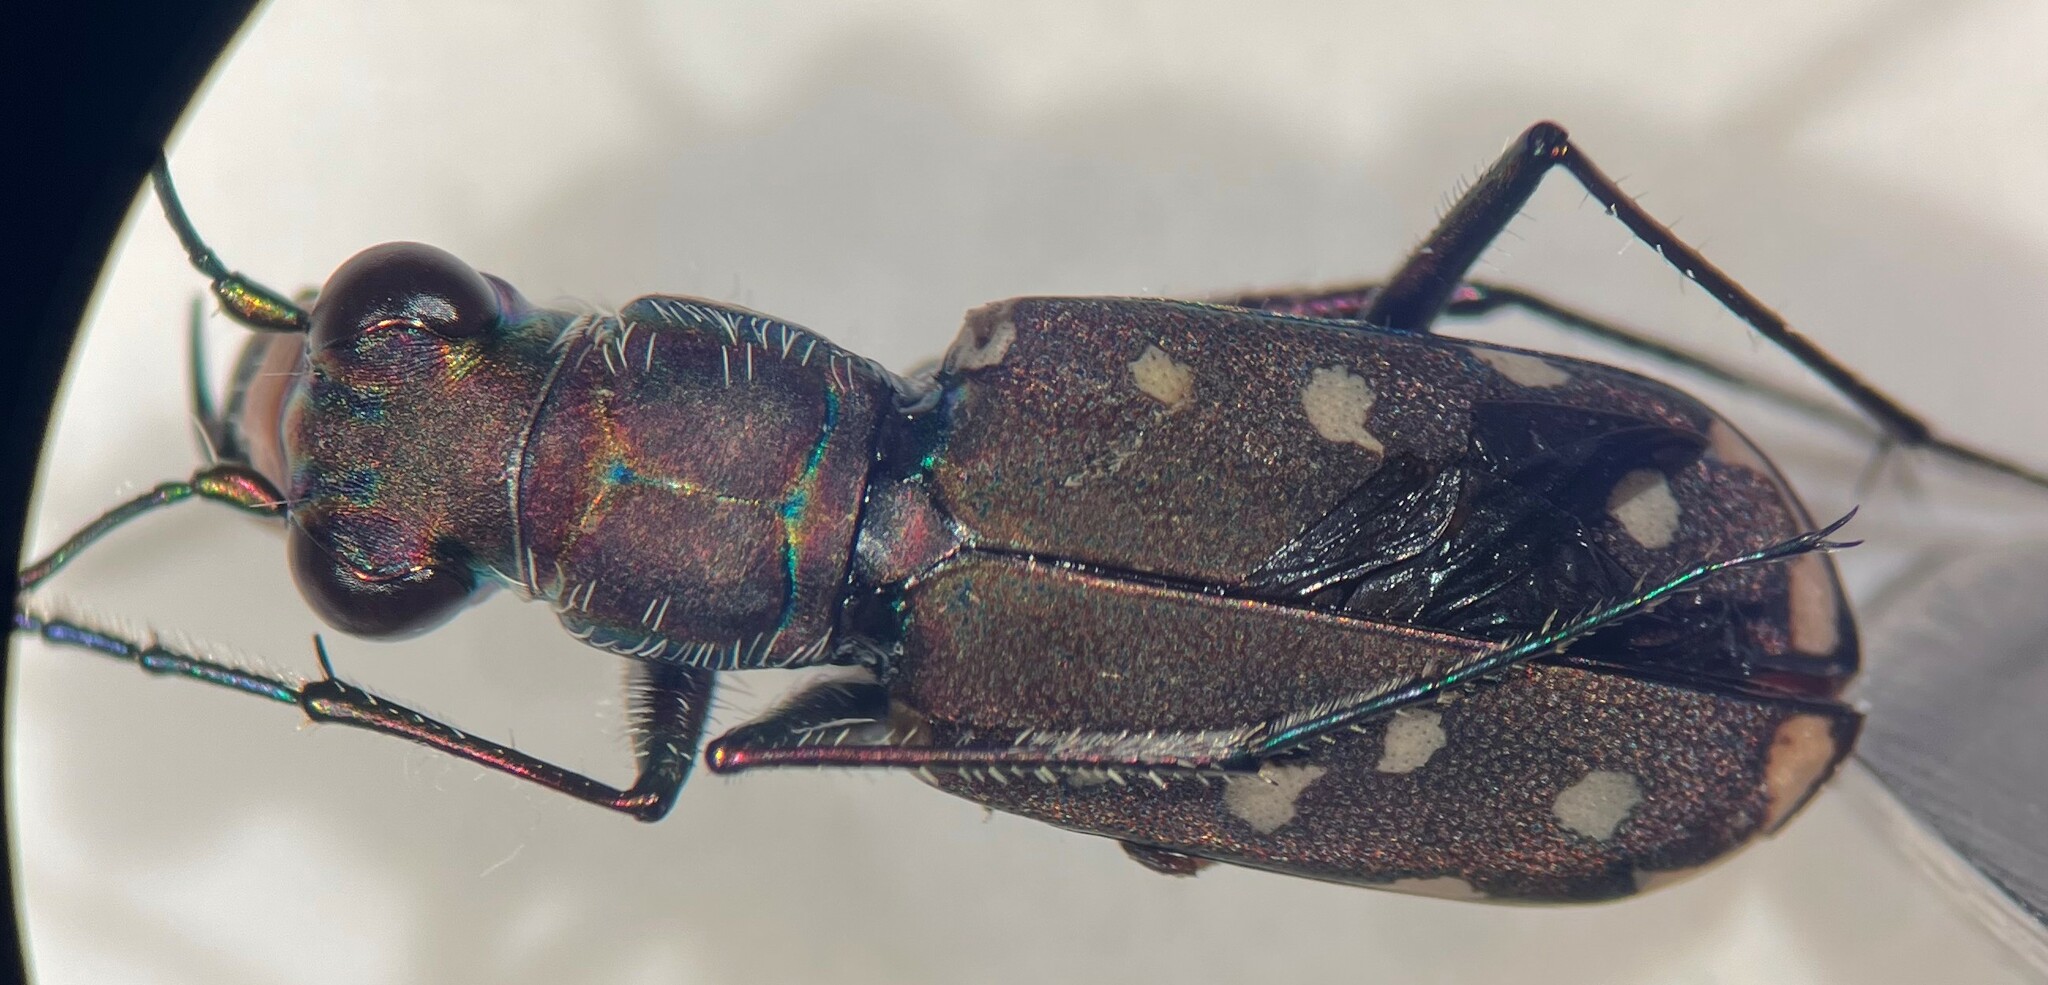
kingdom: Animalia
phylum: Arthropoda
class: Insecta
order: Coleoptera
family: Carabidae
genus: Cicindela
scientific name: Cicindela sedecimpunctata
